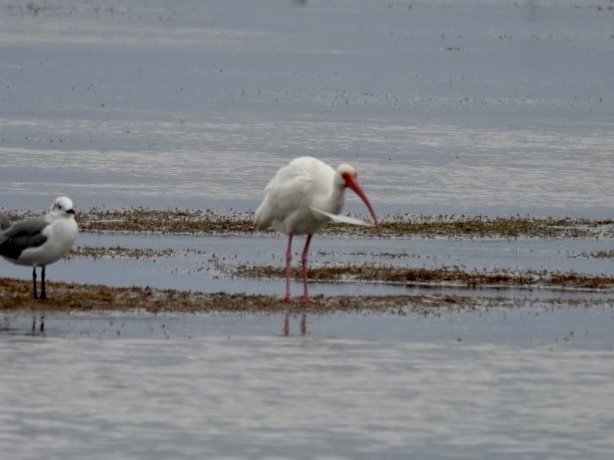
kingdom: Animalia
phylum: Chordata
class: Aves
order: Pelecaniformes
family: Threskiornithidae
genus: Eudocimus
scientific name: Eudocimus albus
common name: White ibis
